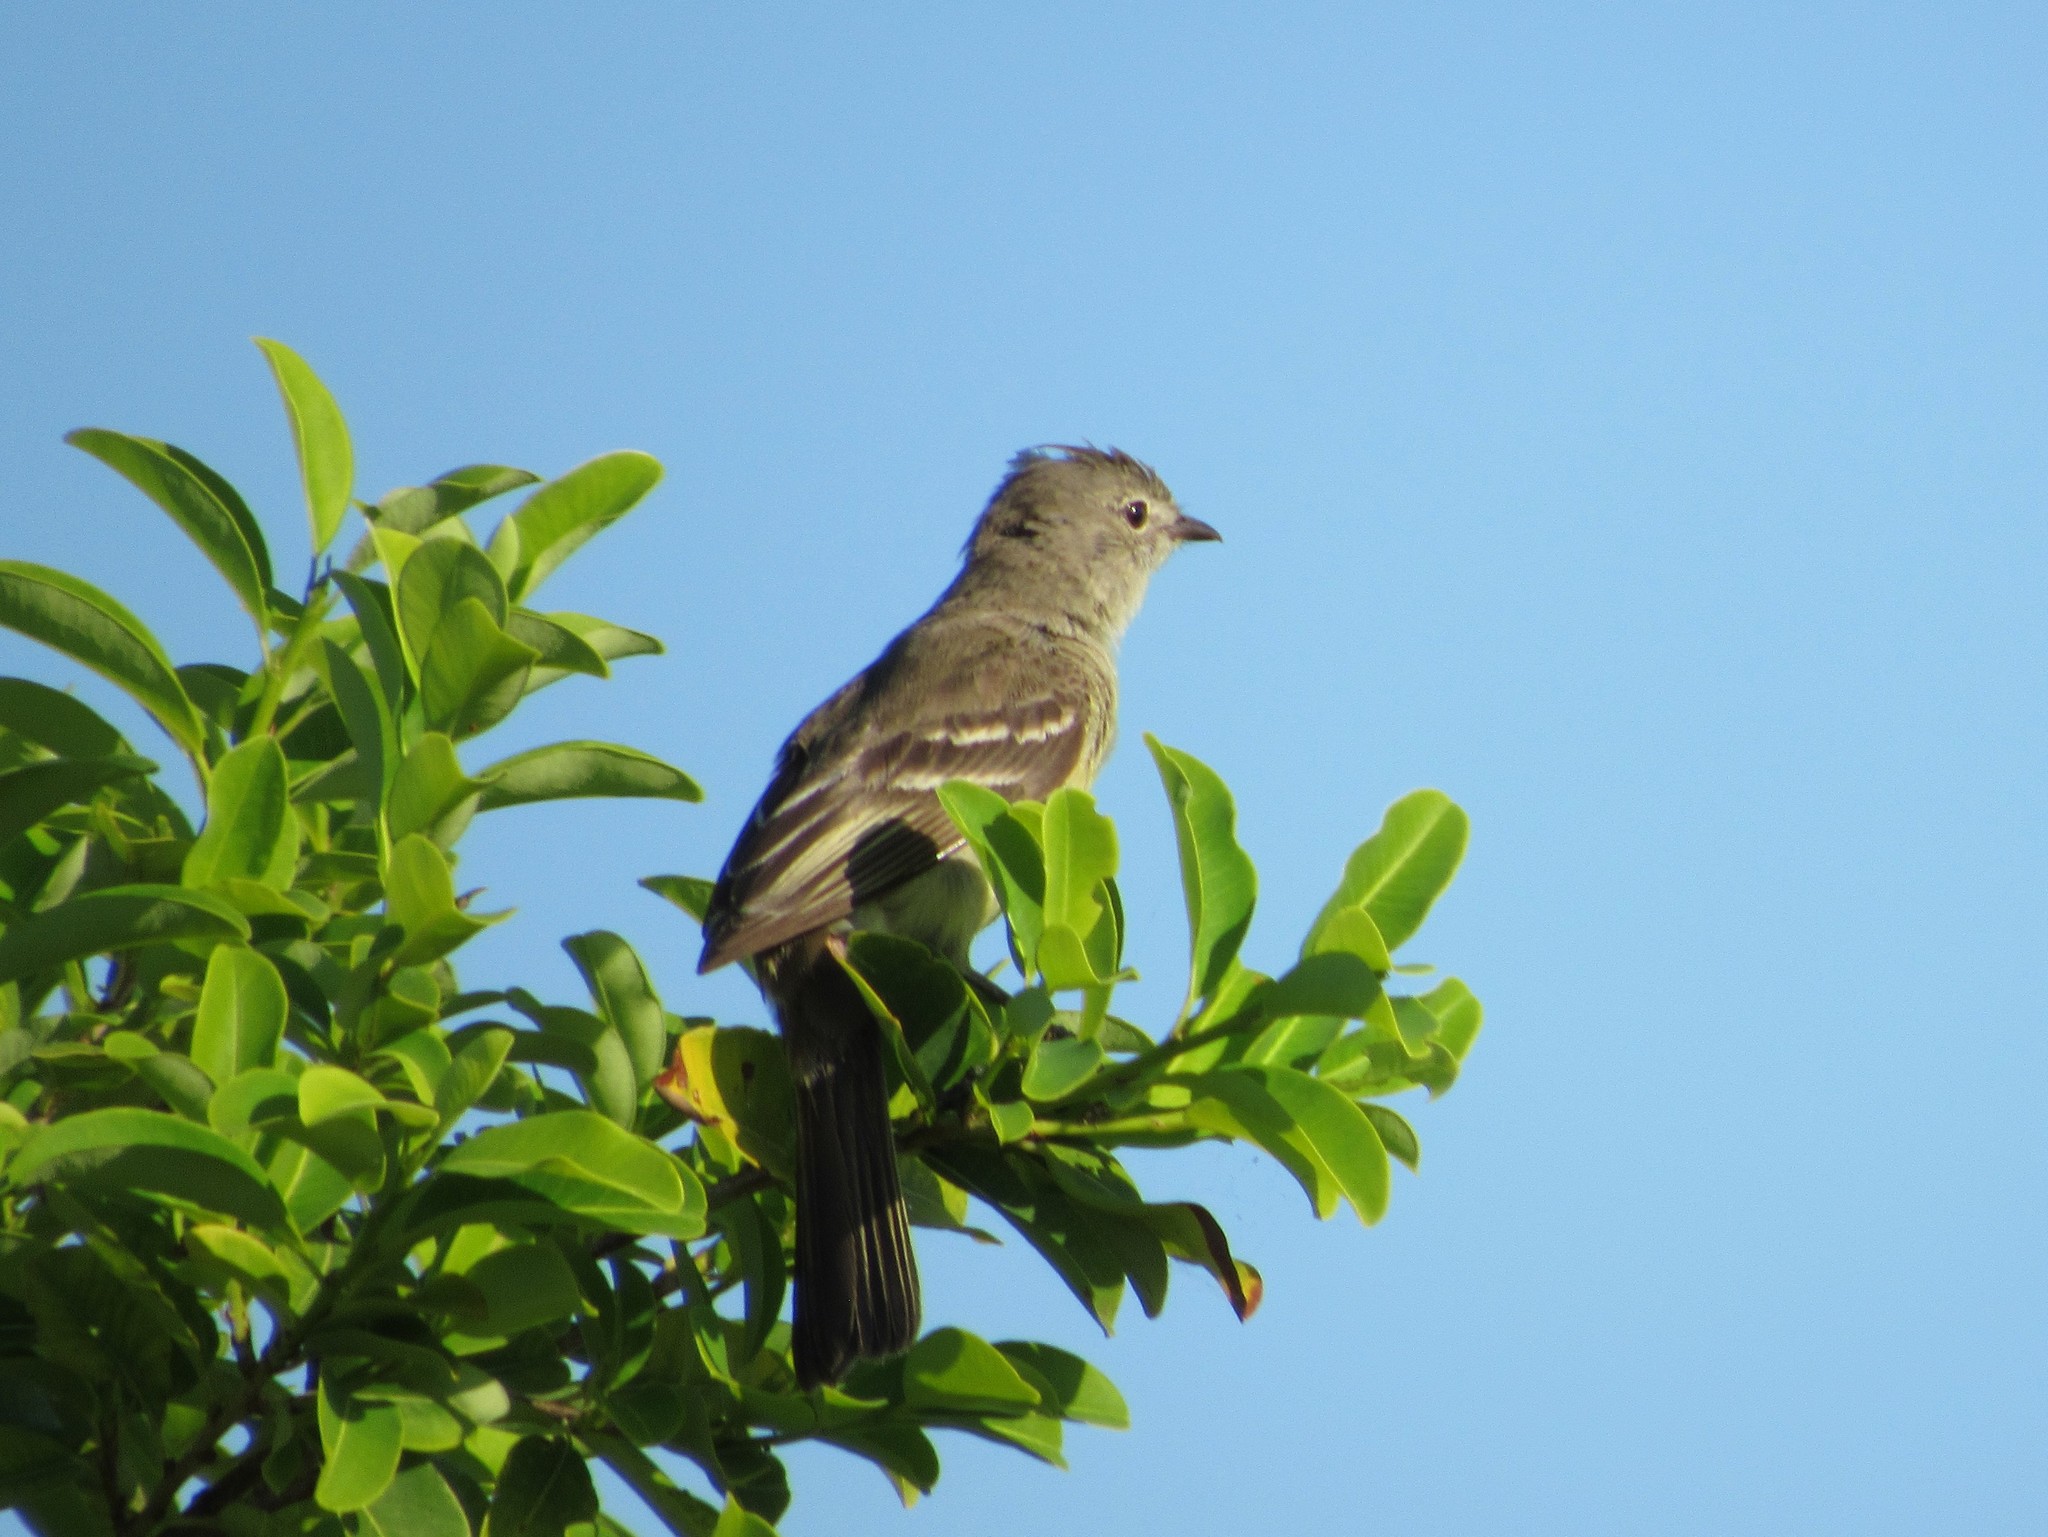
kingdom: Animalia
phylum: Chordata
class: Aves
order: Passeriformes
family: Tyrannidae
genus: Elaenia
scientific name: Elaenia sordida
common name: Small-headed elaenia
